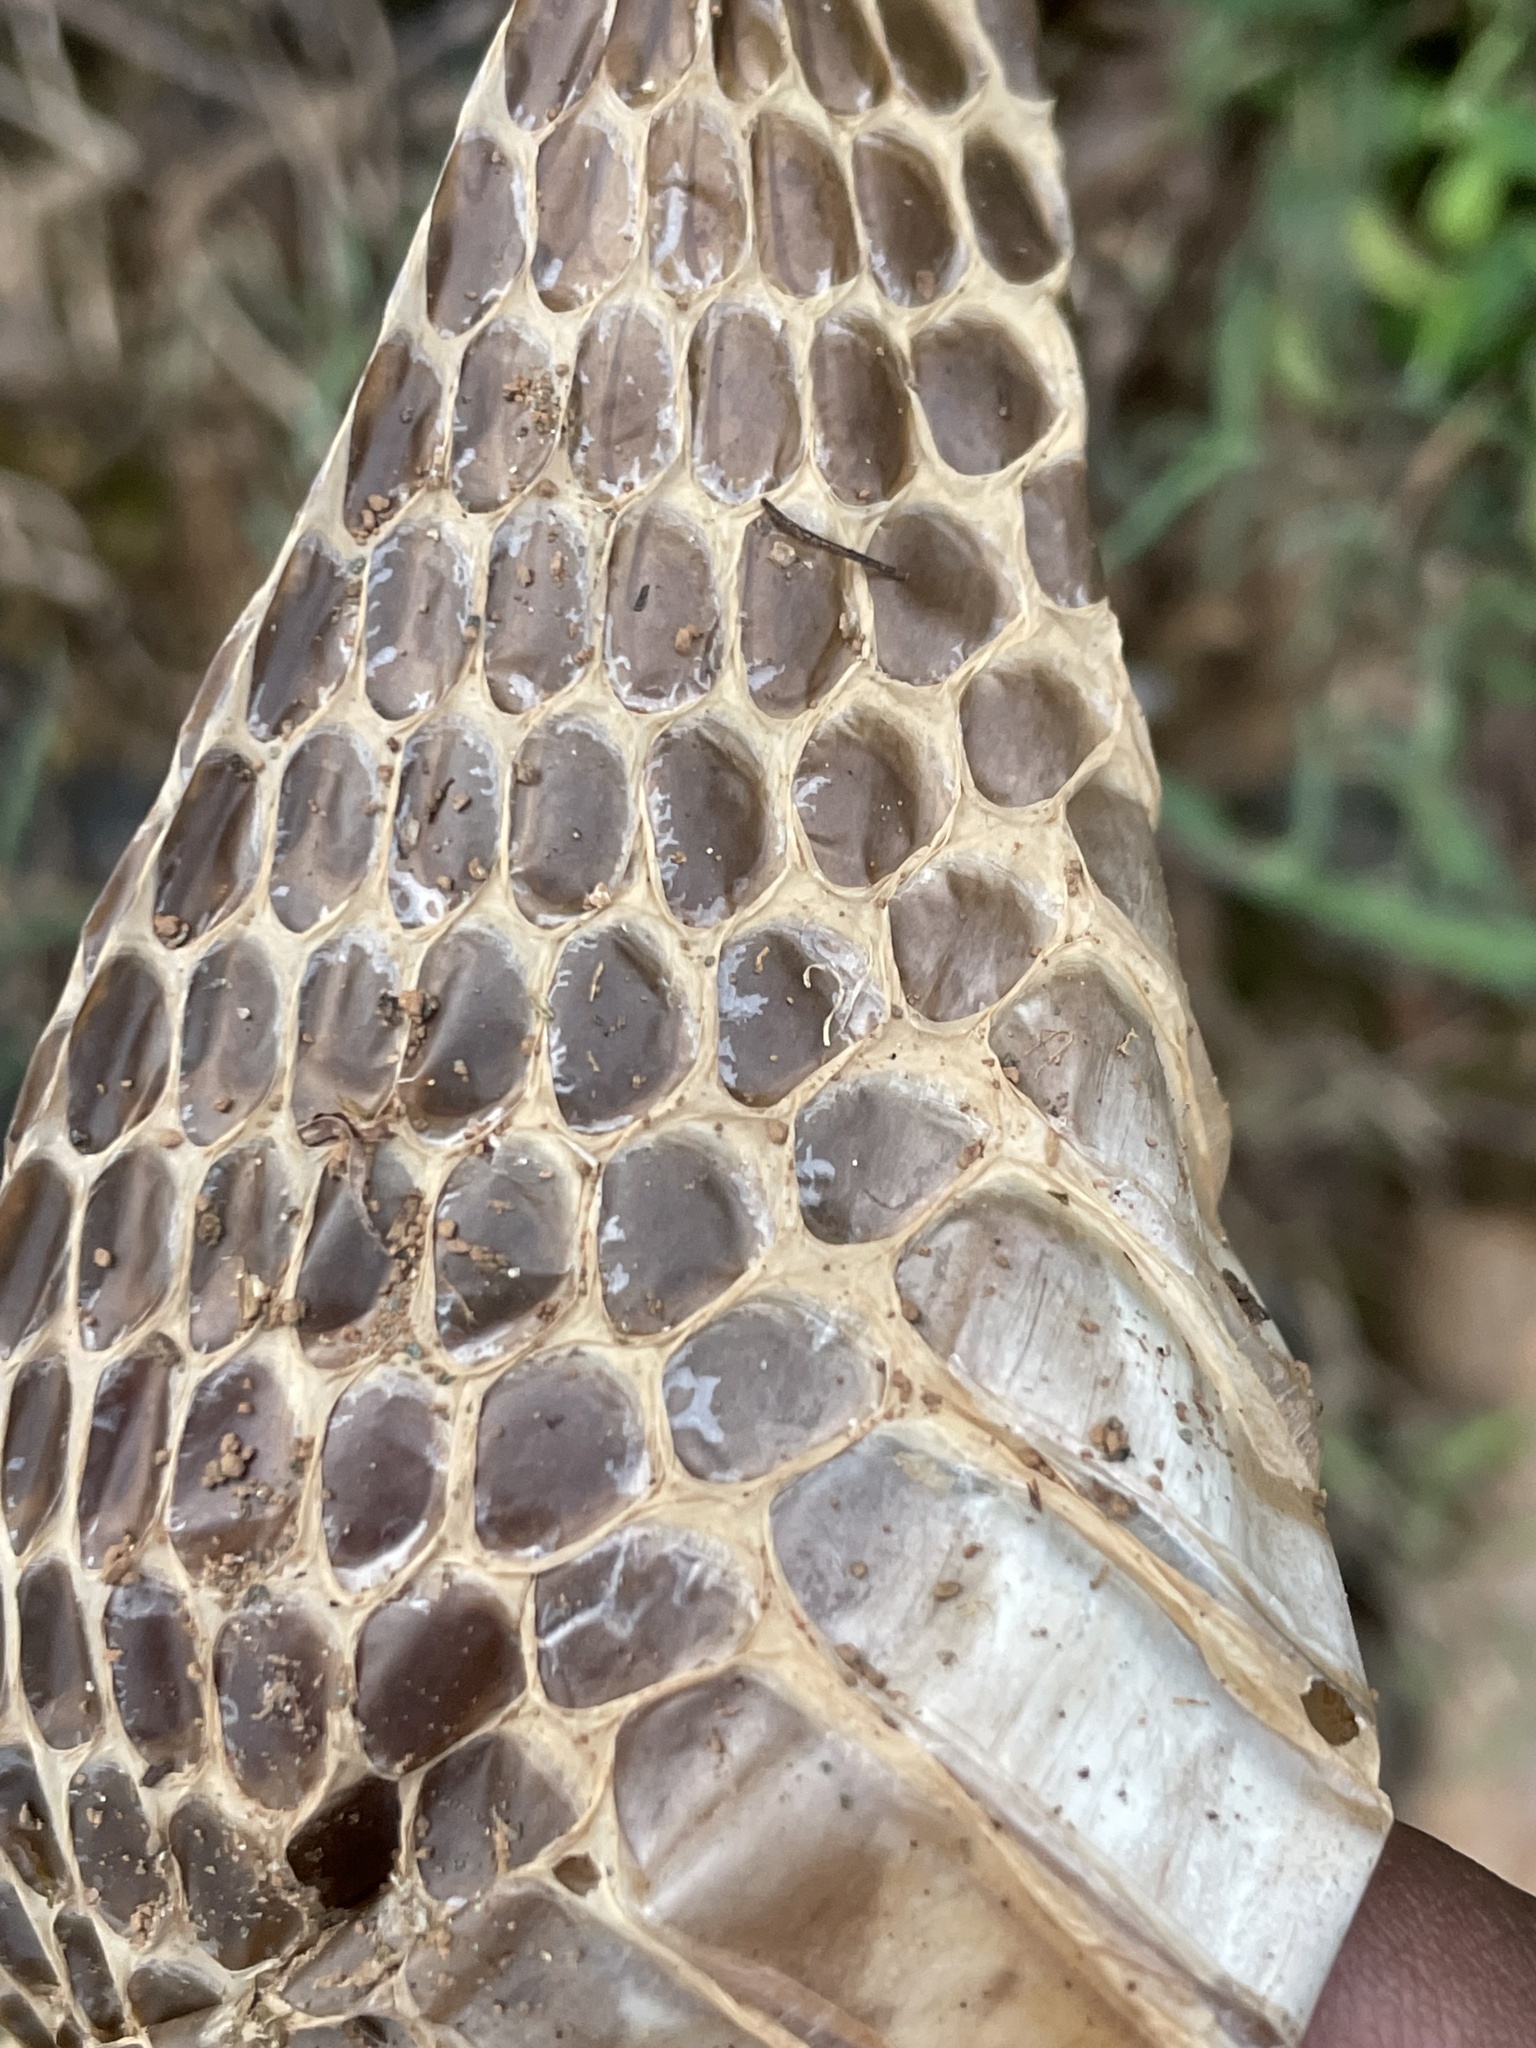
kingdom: Animalia
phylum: Chordata
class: Squamata
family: Elapidae
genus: Naja
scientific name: Naja naja
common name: Indian cobra
